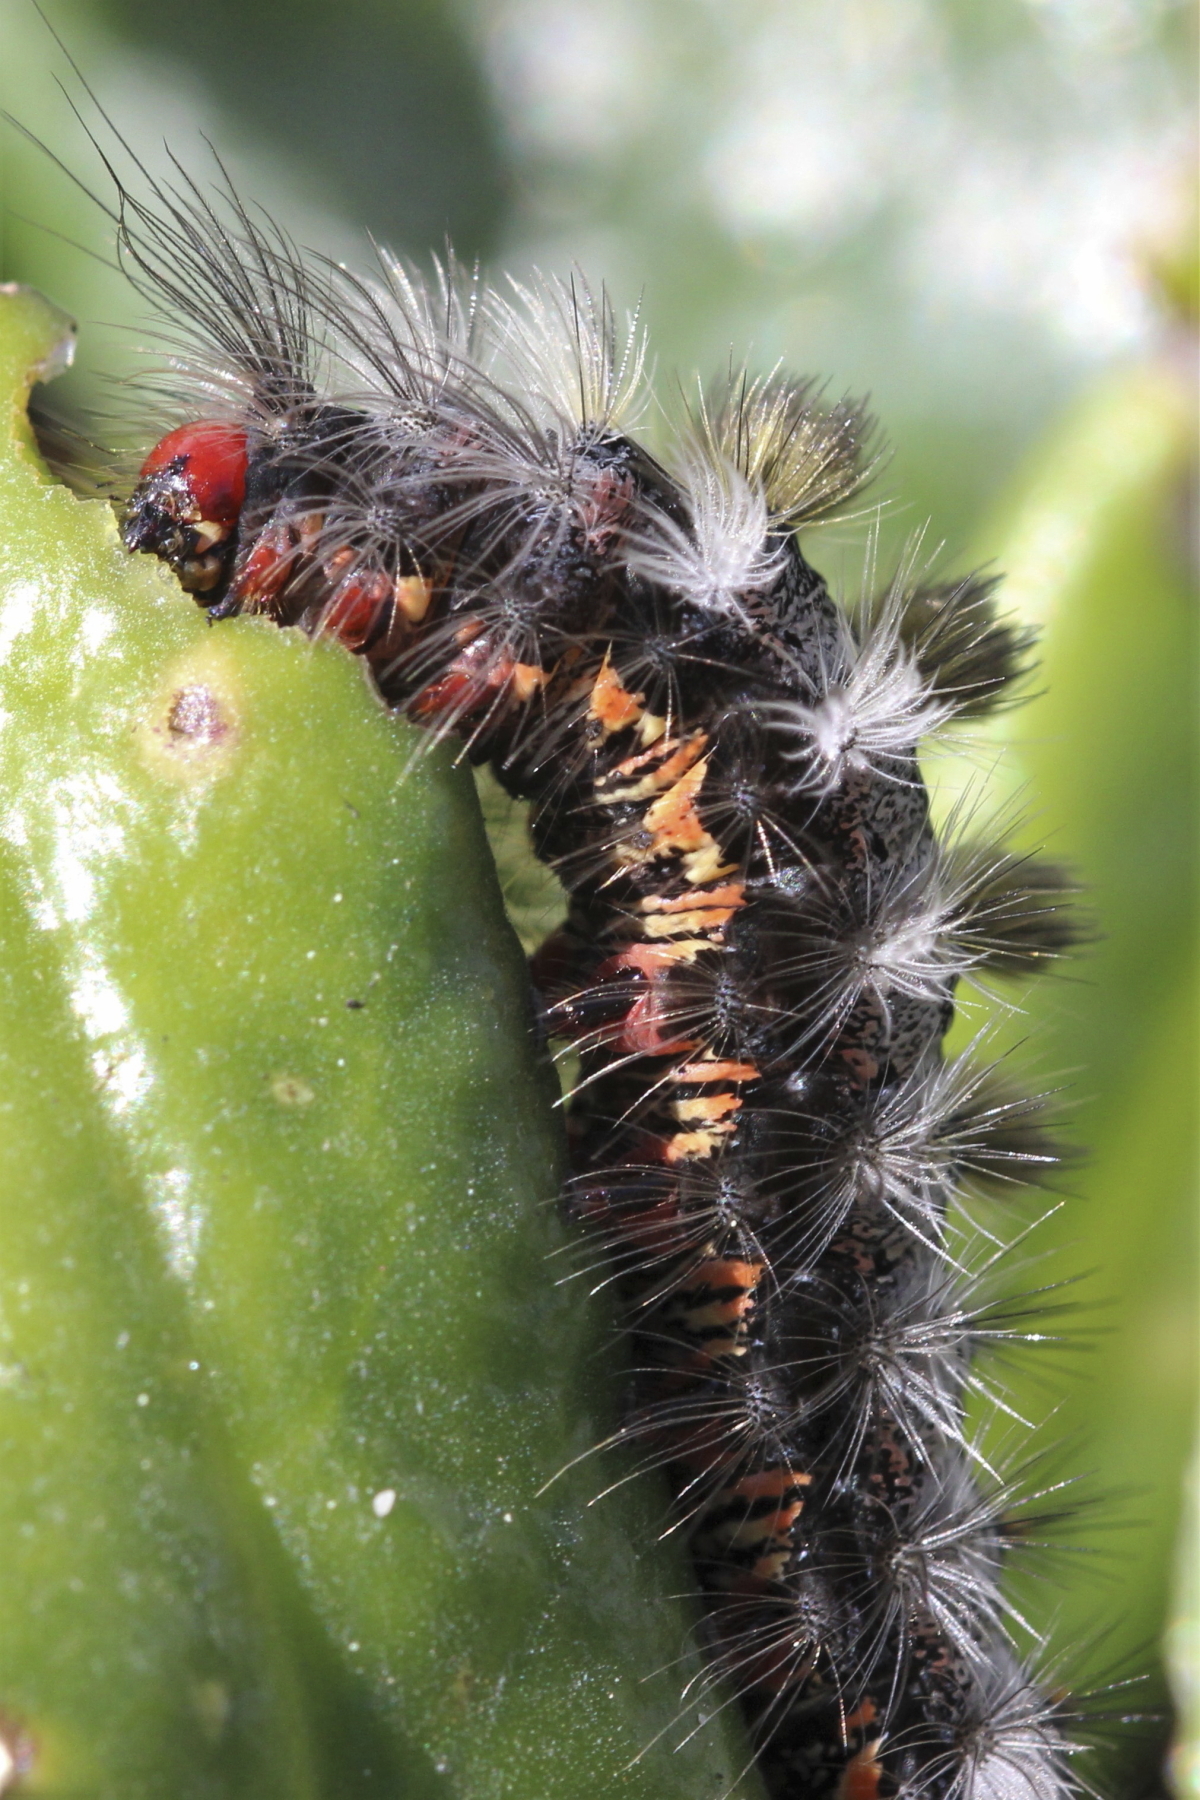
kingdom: Animalia
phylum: Arthropoda
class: Insecta
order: Lepidoptera
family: Erebidae
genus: Orgyia
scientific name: Orgyia tricolor
